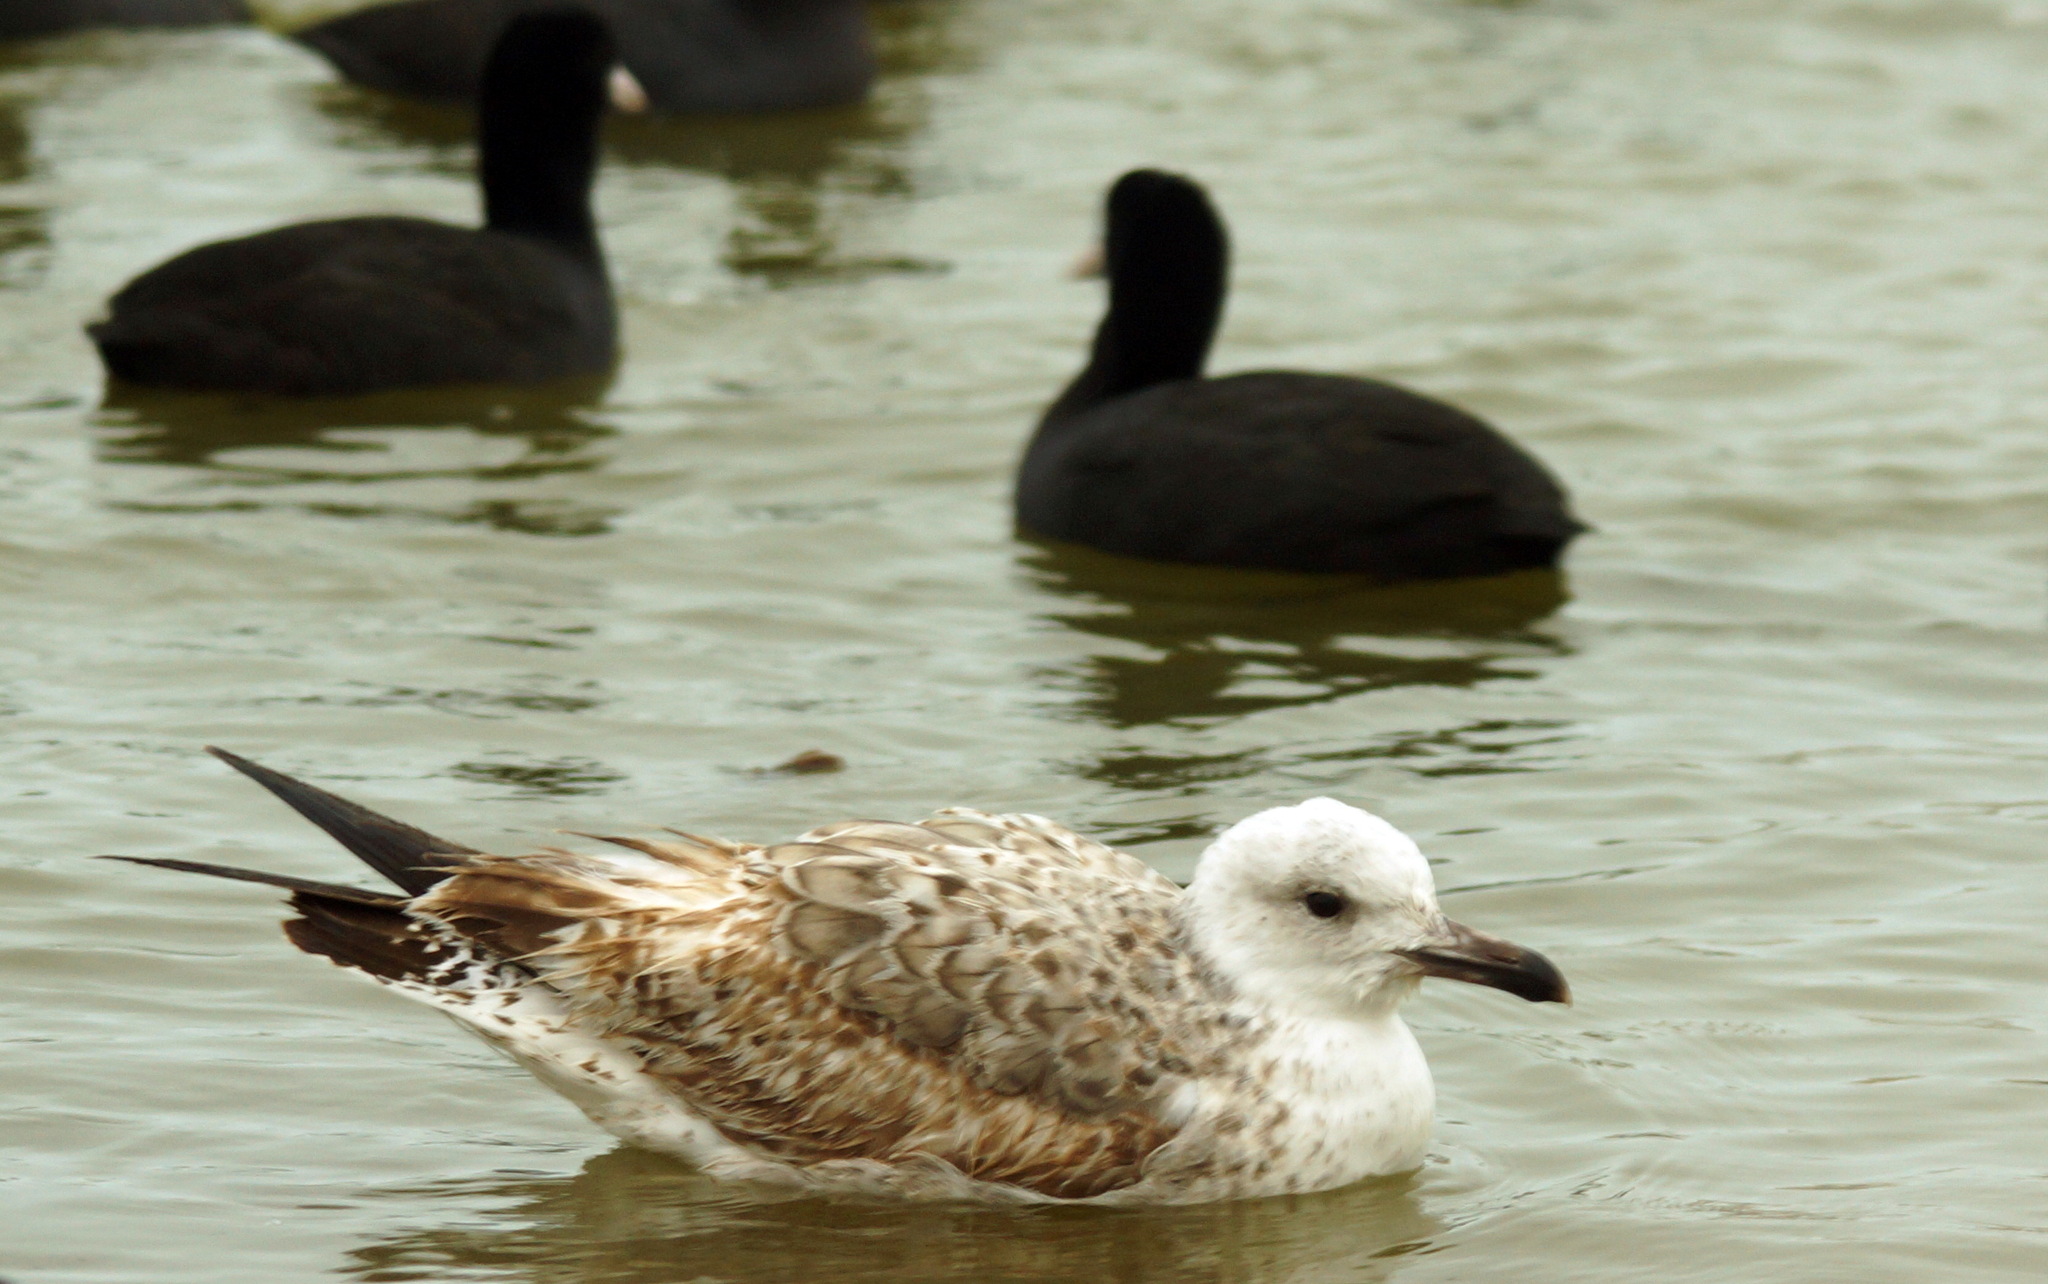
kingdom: Animalia
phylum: Chordata
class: Aves
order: Charadriiformes
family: Laridae
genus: Larus
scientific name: Larus cachinnans
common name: Caspian gull
